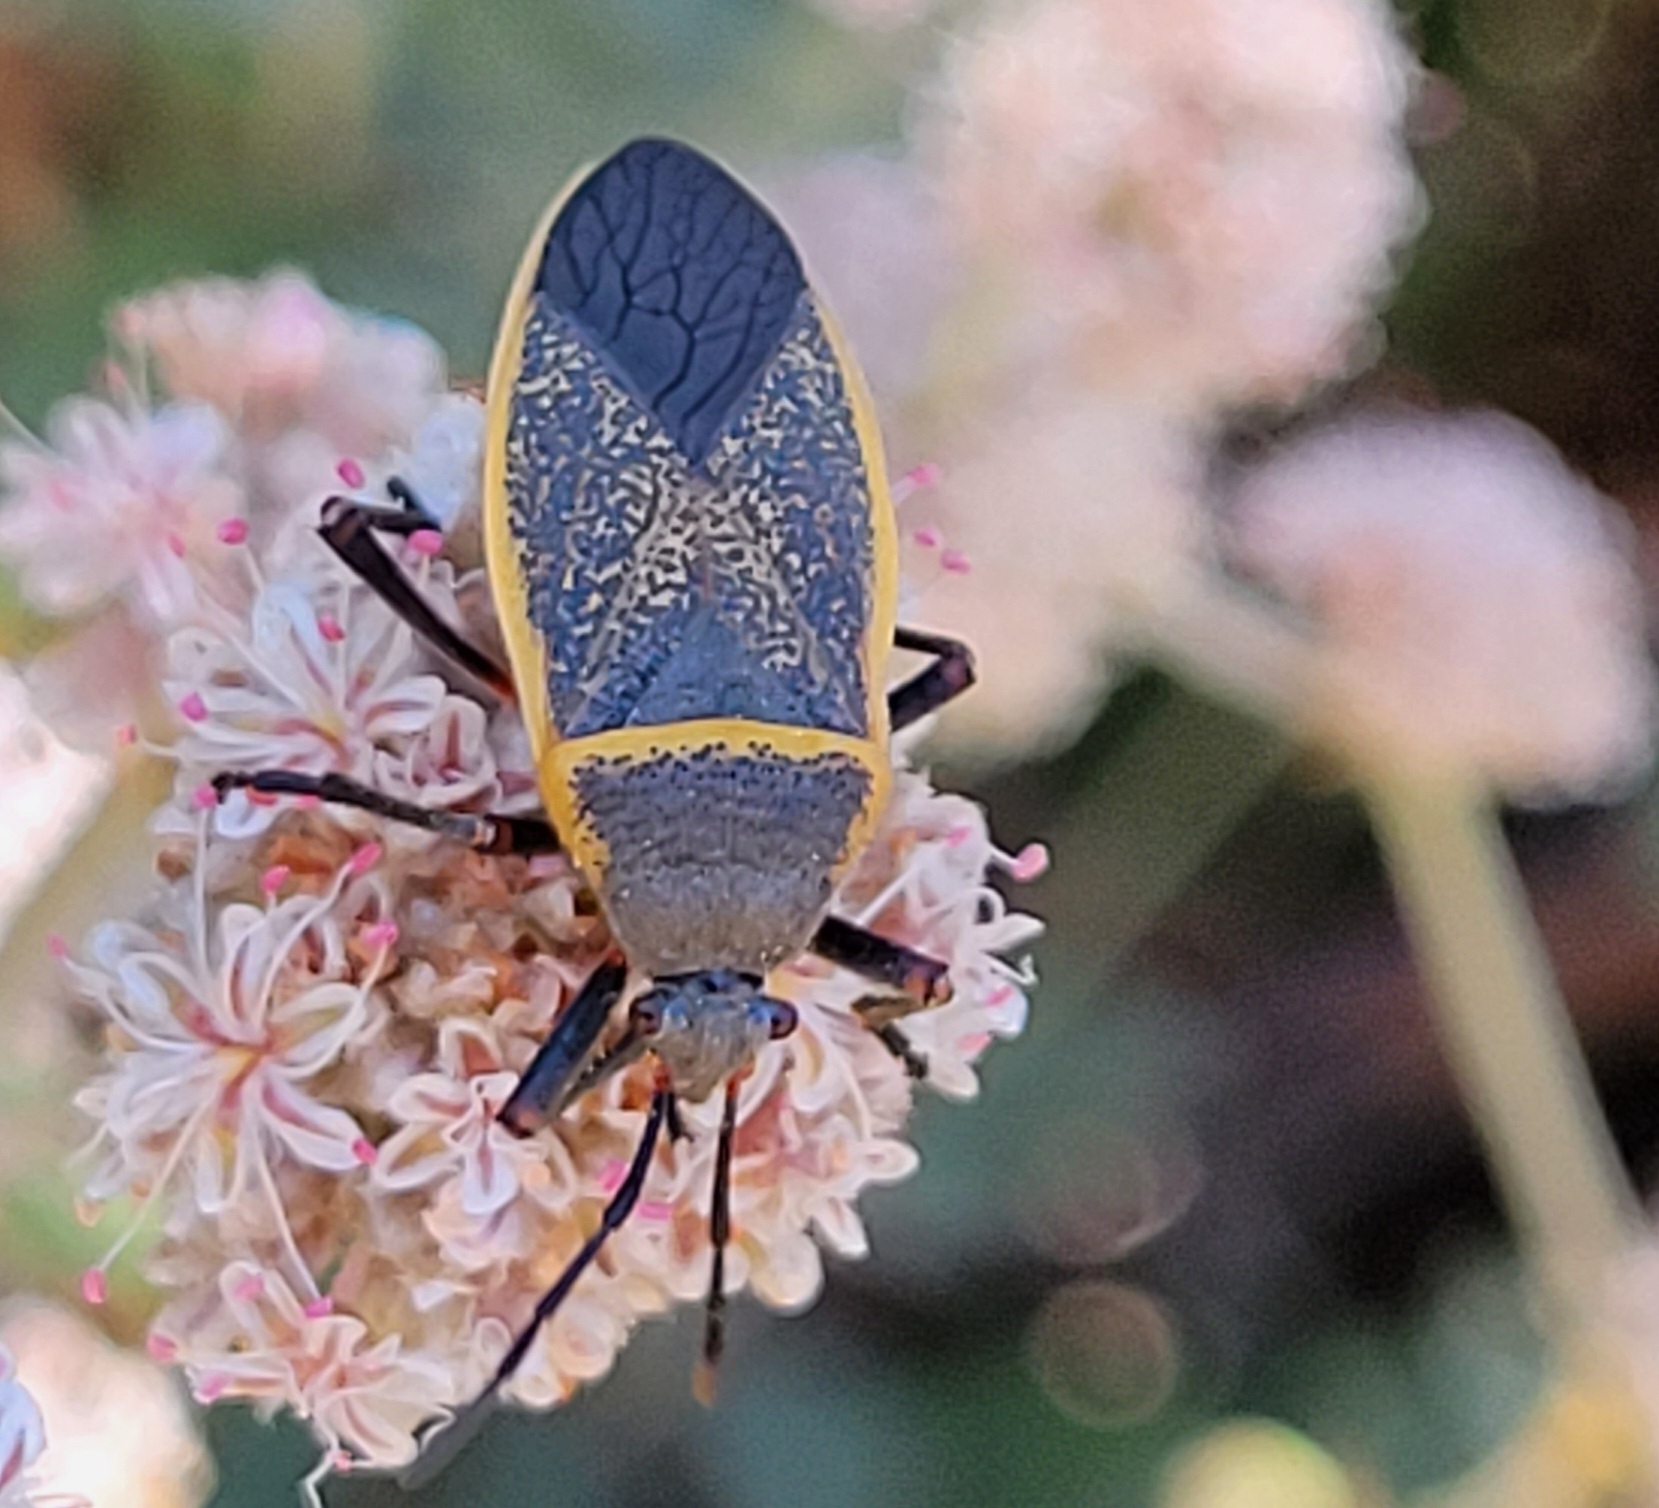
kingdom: Animalia
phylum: Arthropoda
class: Insecta
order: Hemiptera
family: Largidae
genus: Largus
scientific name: Largus californicus
